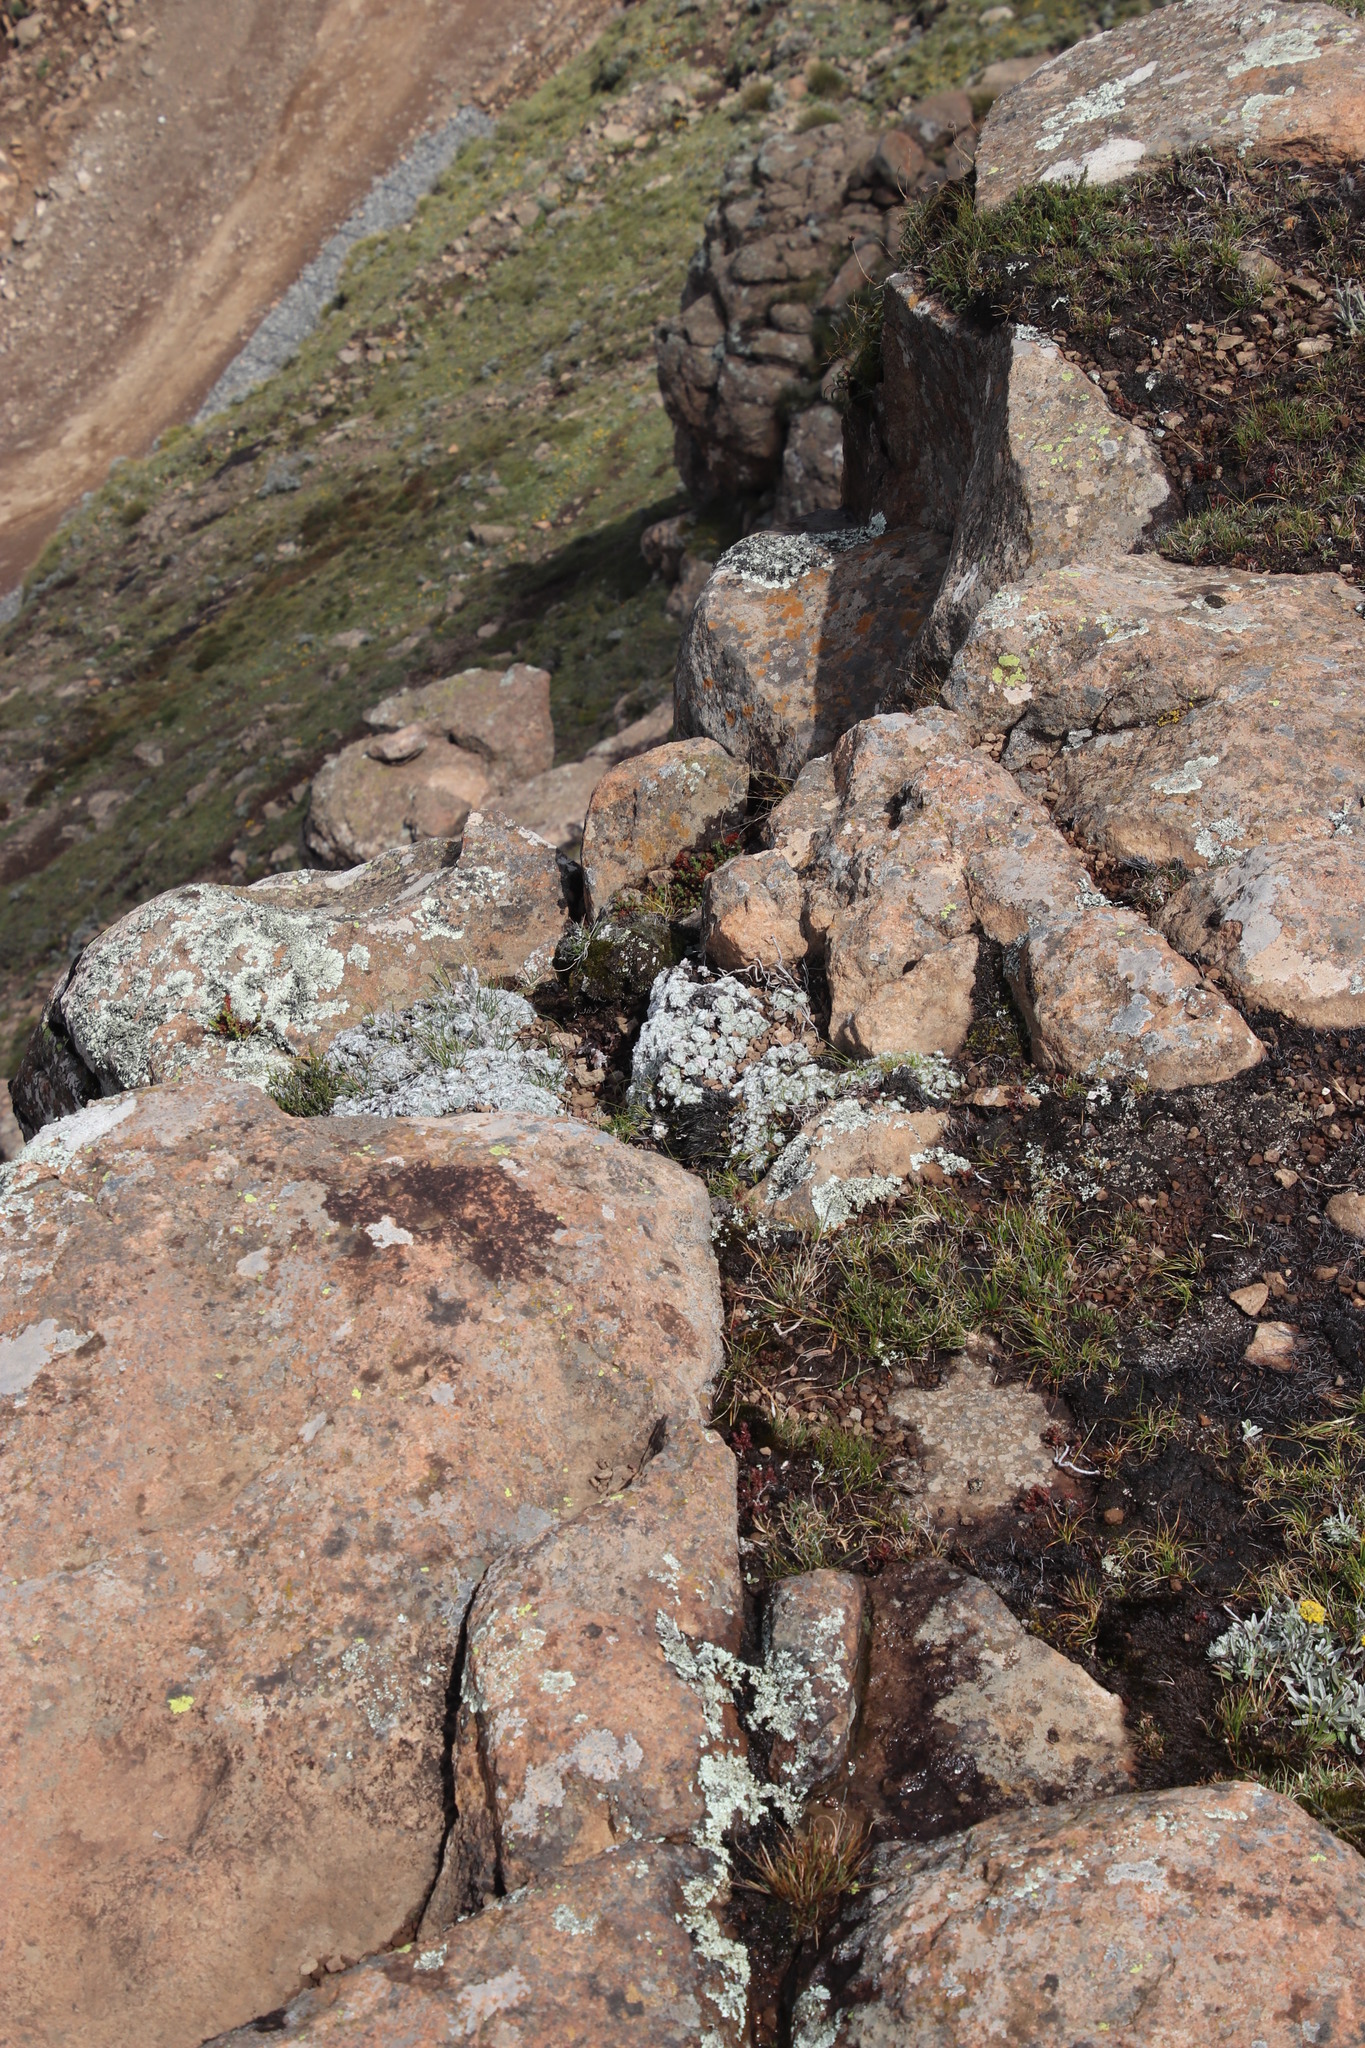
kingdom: Plantae
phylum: Tracheophyta
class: Magnoliopsida
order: Asterales
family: Asteraceae
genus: Helichrysum
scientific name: Helichrysum milfordiae
